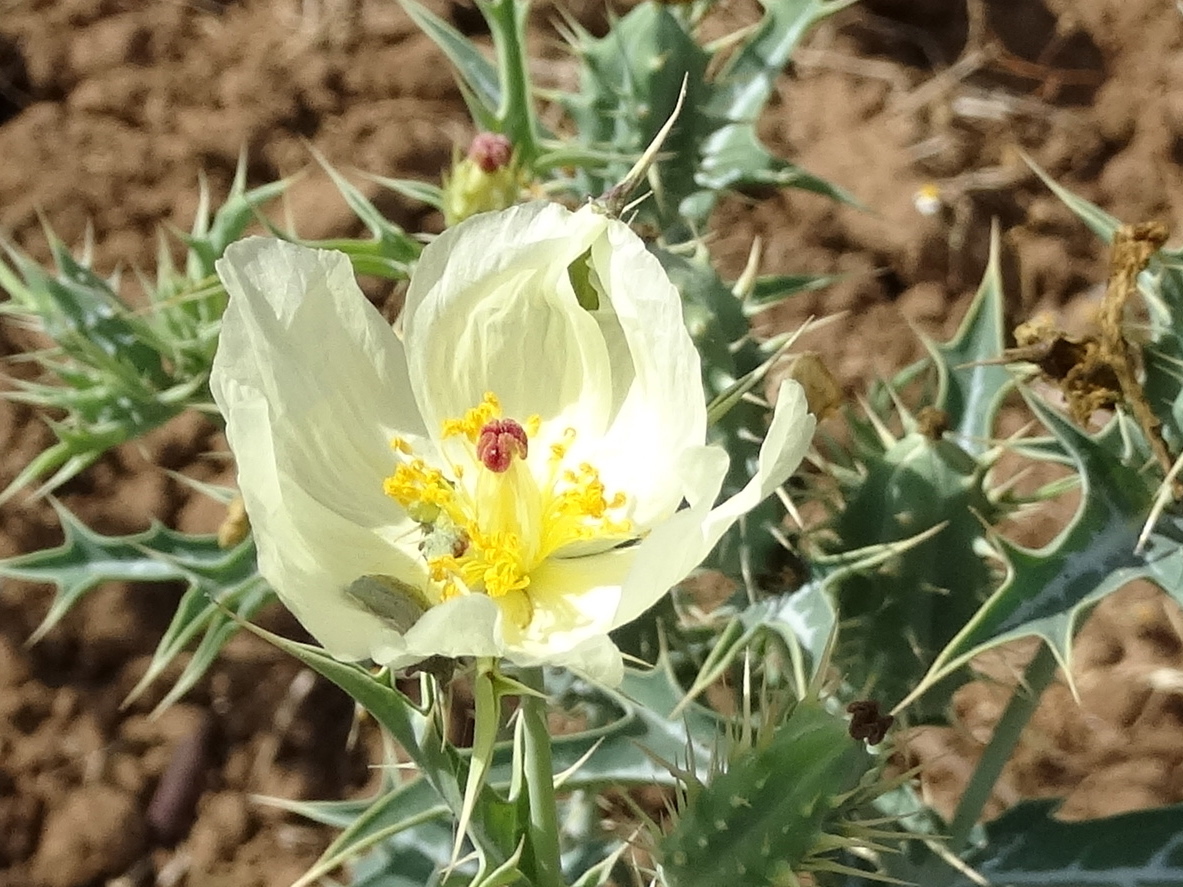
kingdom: Plantae
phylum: Tracheophyta
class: Magnoliopsida
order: Ranunculales
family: Papaveraceae
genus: Argemone
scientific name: Argemone ochroleuca
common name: White-flower mexican-poppy
